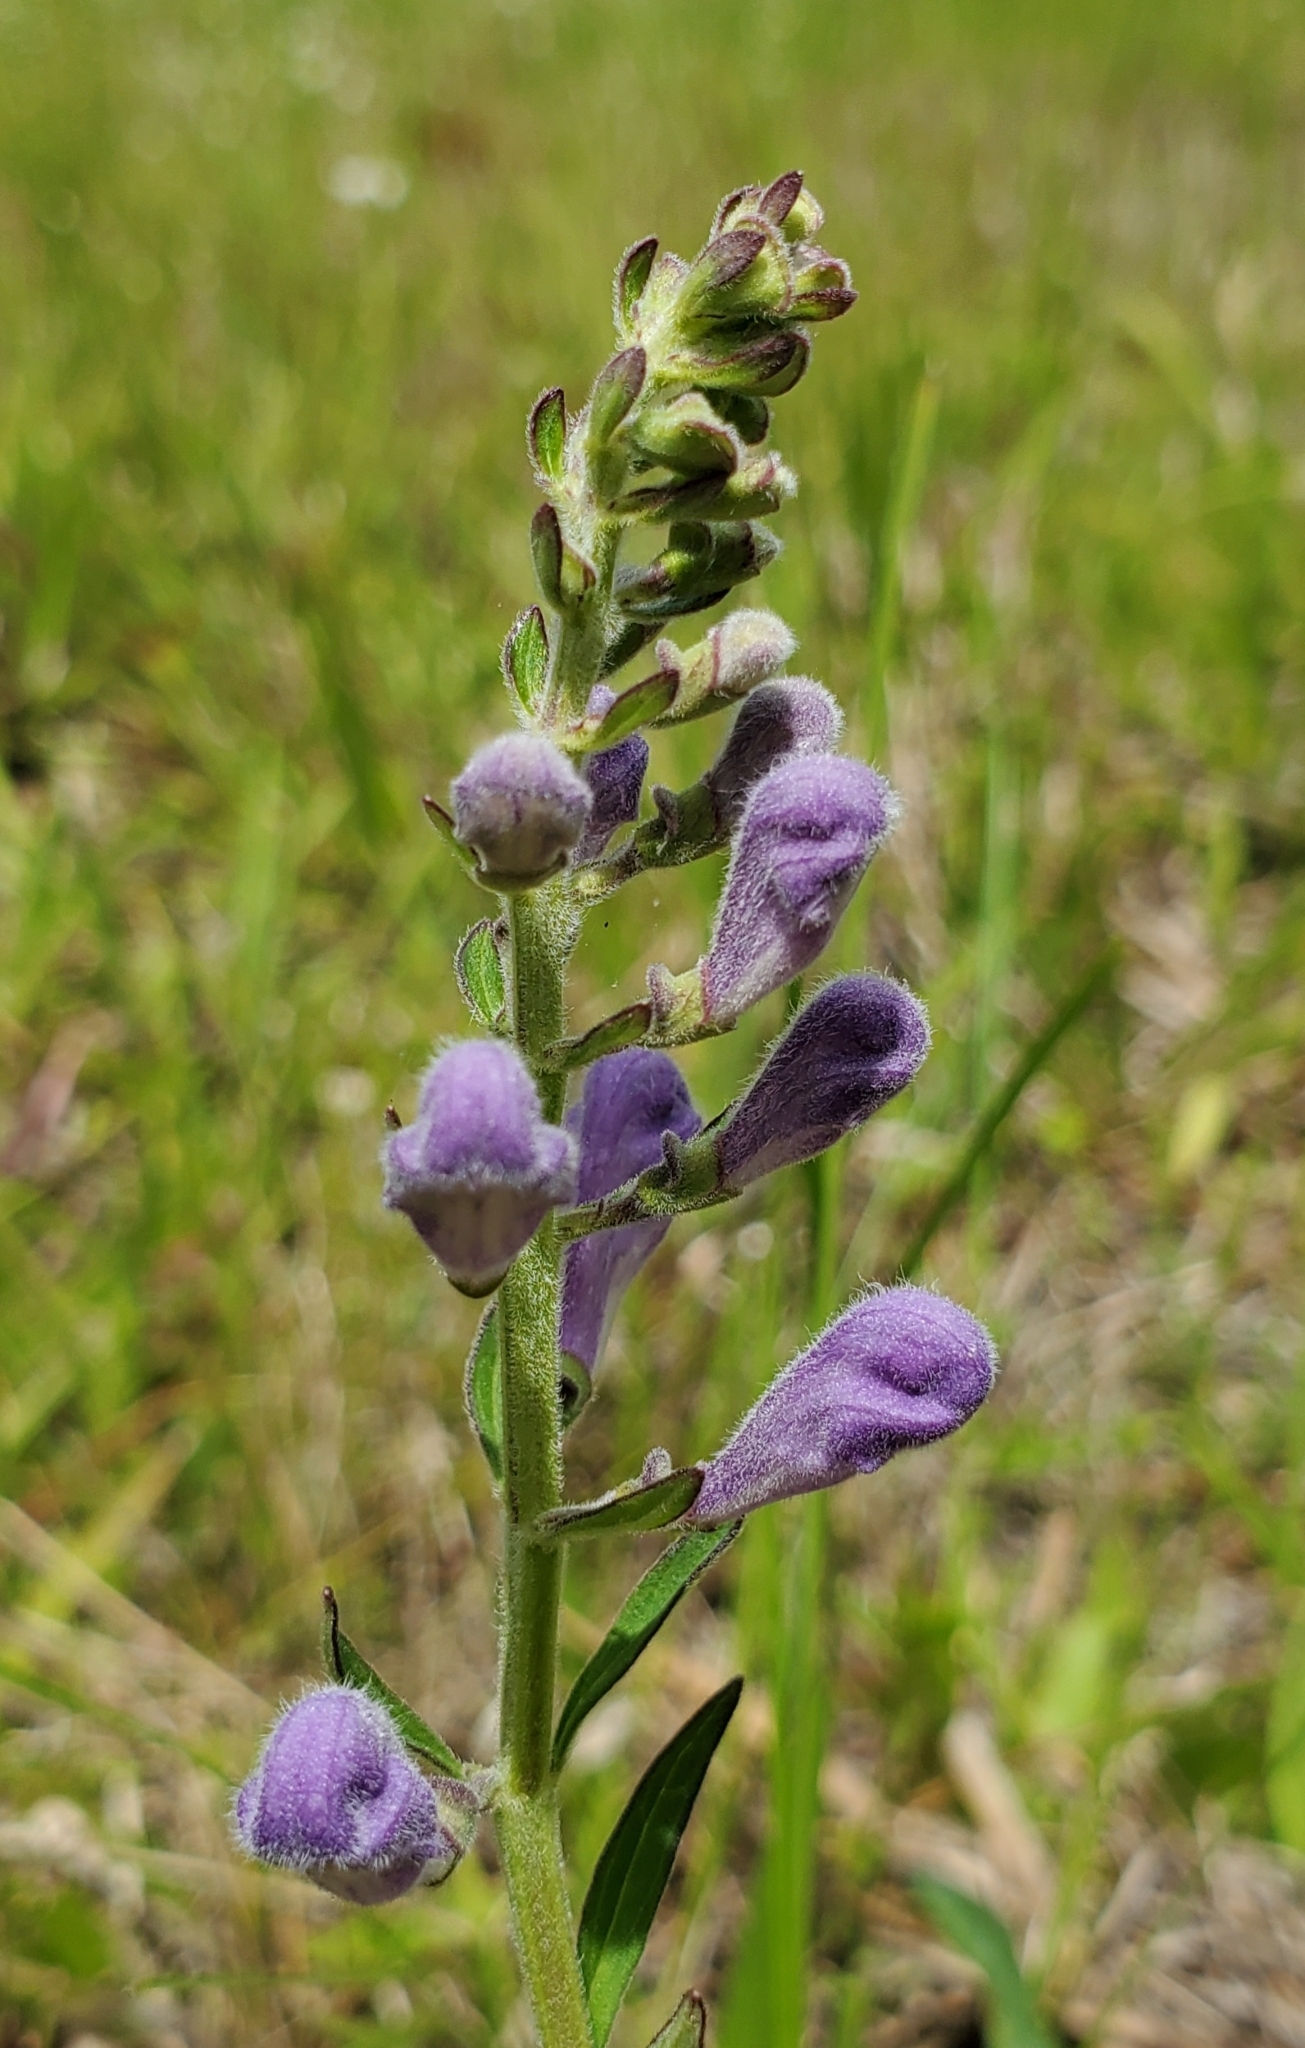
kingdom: Plantae
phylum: Tracheophyta
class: Magnoliopsida
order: Lamiales
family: Lamiaceae
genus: Scutellaria
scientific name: Scutellaria integrifolia
